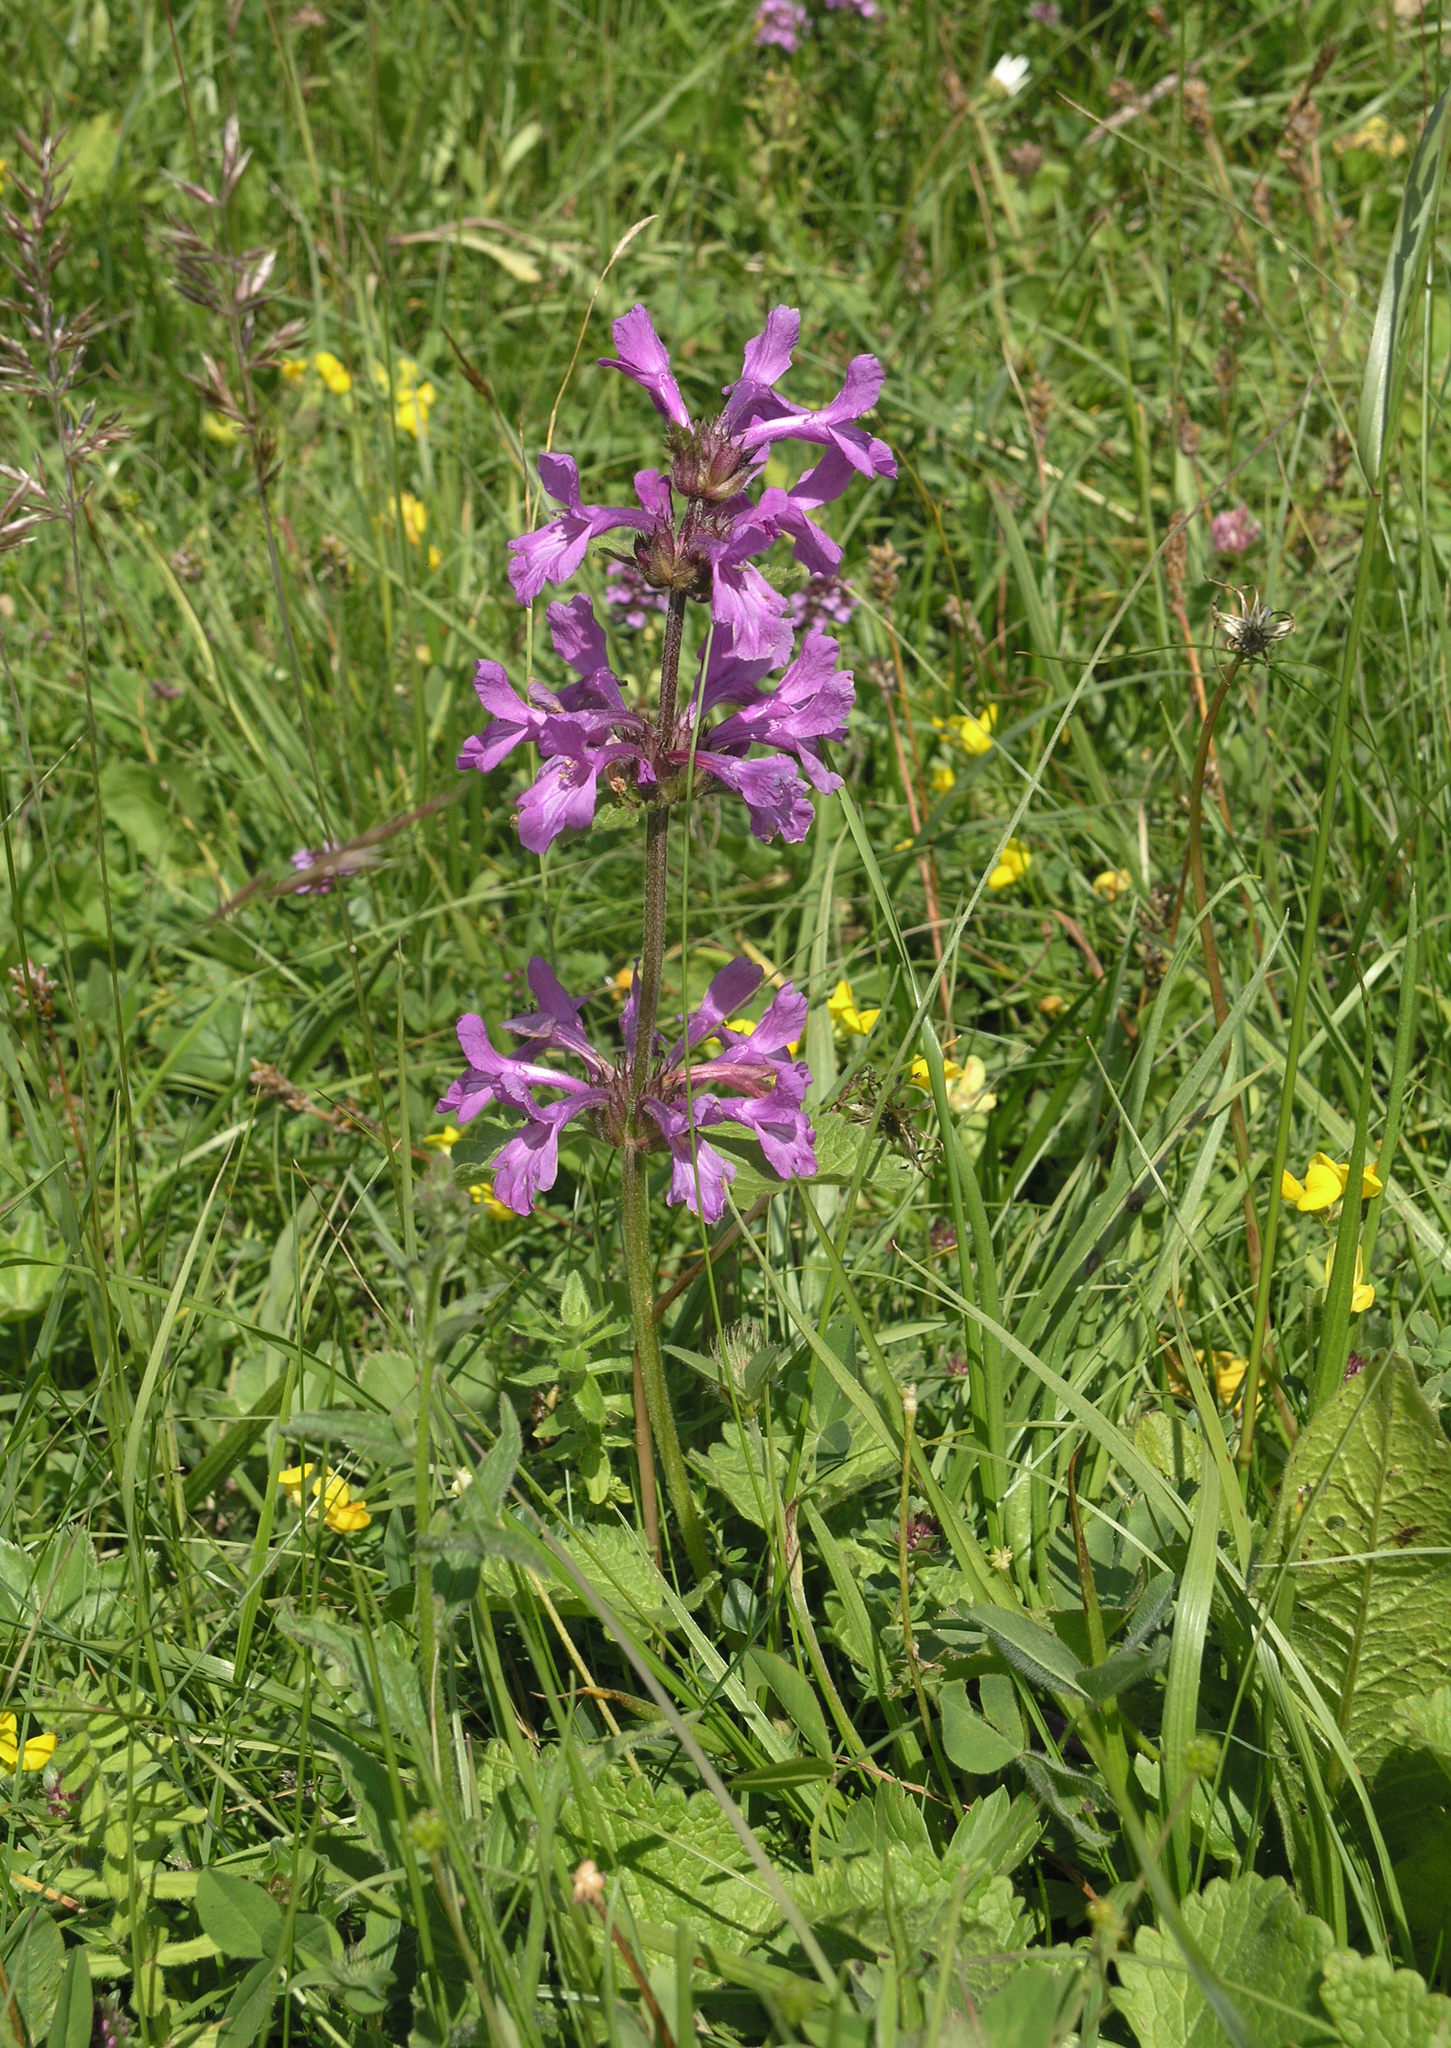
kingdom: Plantae
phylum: Tracheophyta
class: Magnoliopsida
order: Lamiales
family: Lamiaceae
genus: Betonica
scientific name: Betonica macrantha
